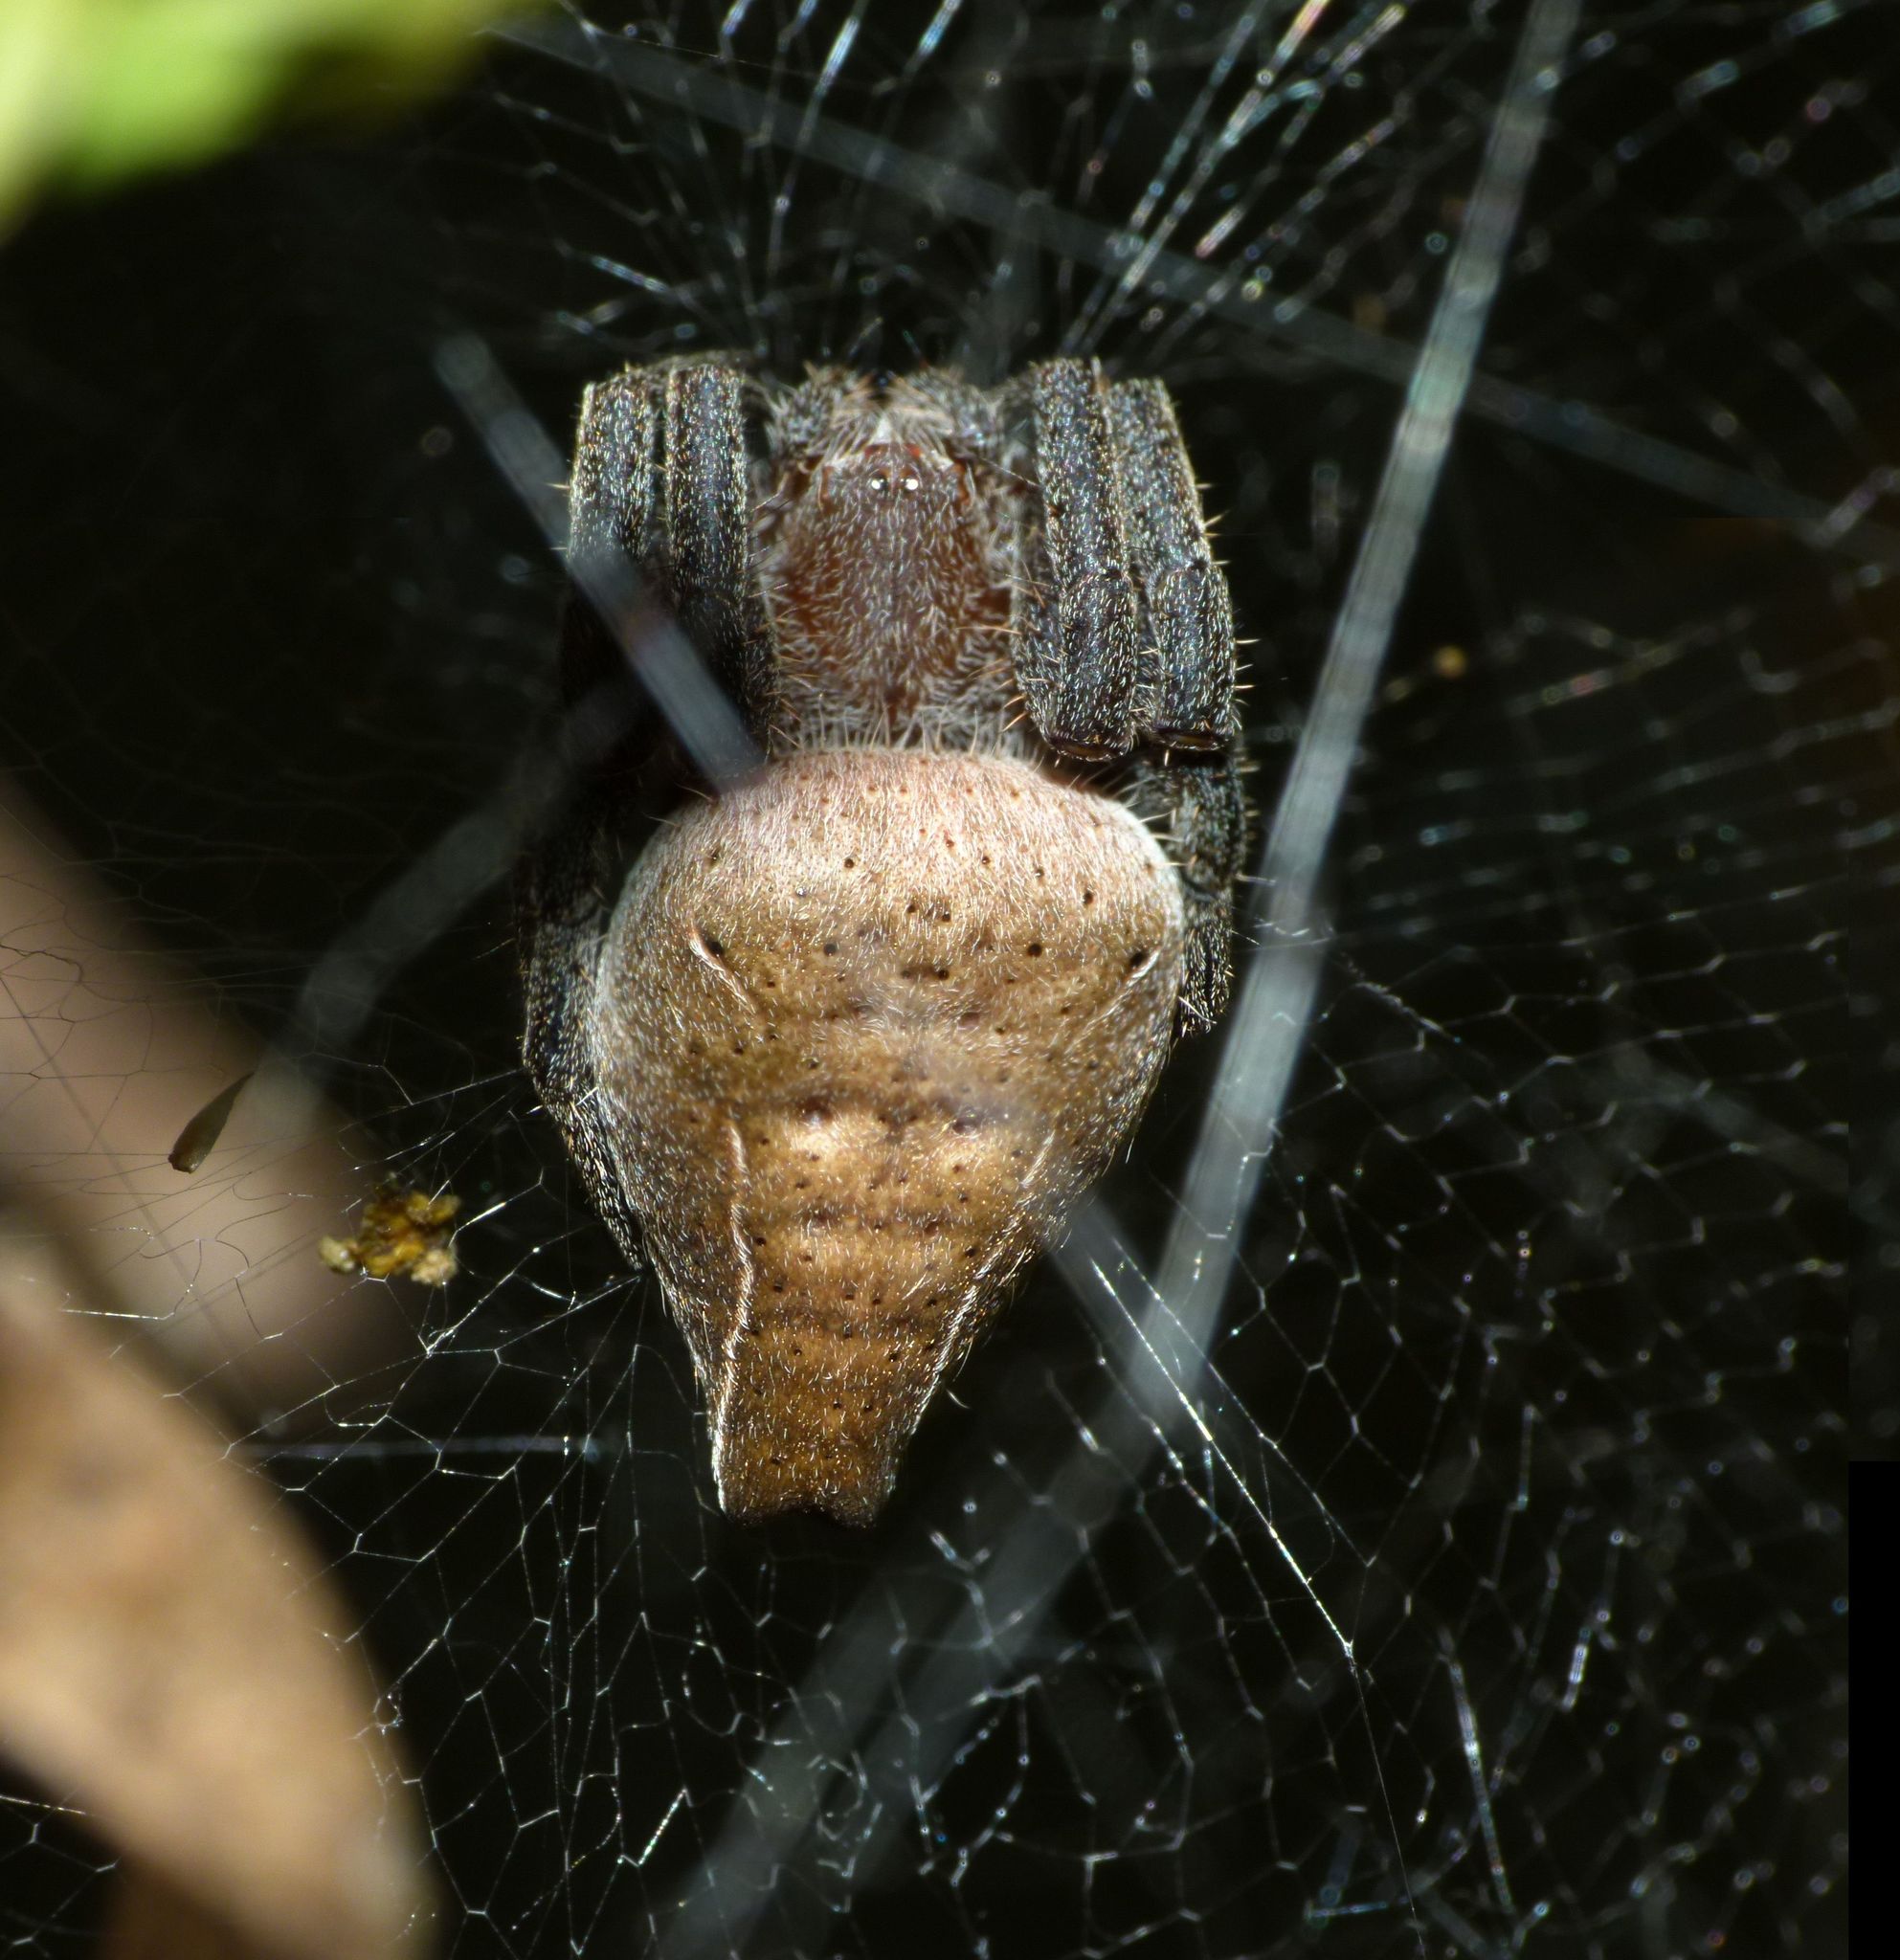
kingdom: Animalia
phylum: Arthropoda
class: Arachnida
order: Araneae
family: Araneidae
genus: Cyrtophora
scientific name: Cyrtophora exanthematica
